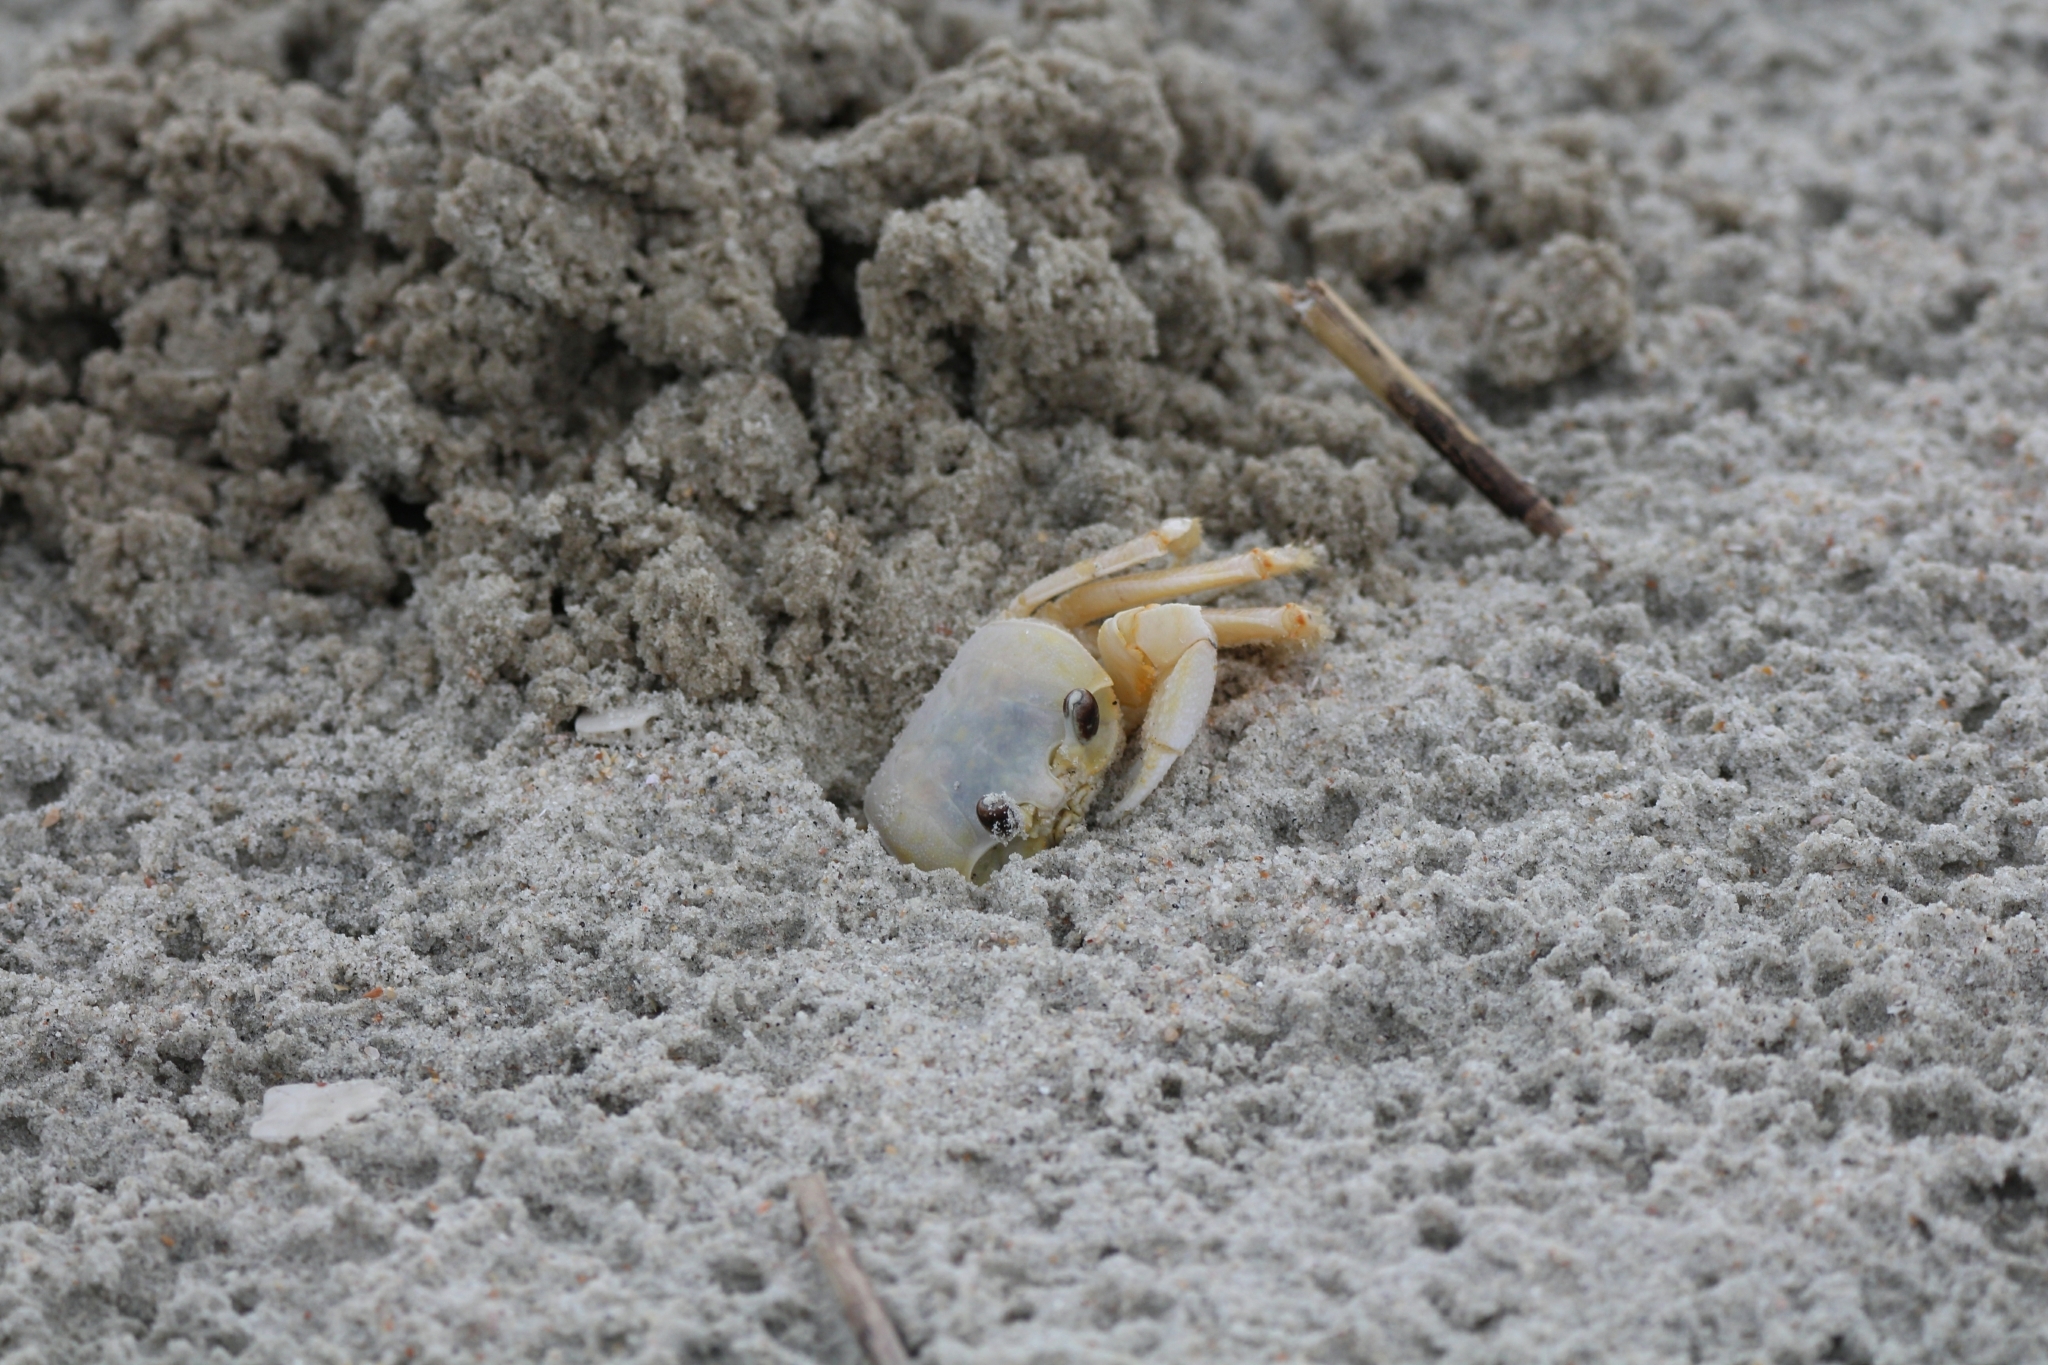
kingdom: Animalia
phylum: Arthropoda
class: Malacostraca
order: Decapoda
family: Ocypodidae
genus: Ocypode
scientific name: Ocypode quadrata
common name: Ghost crab
